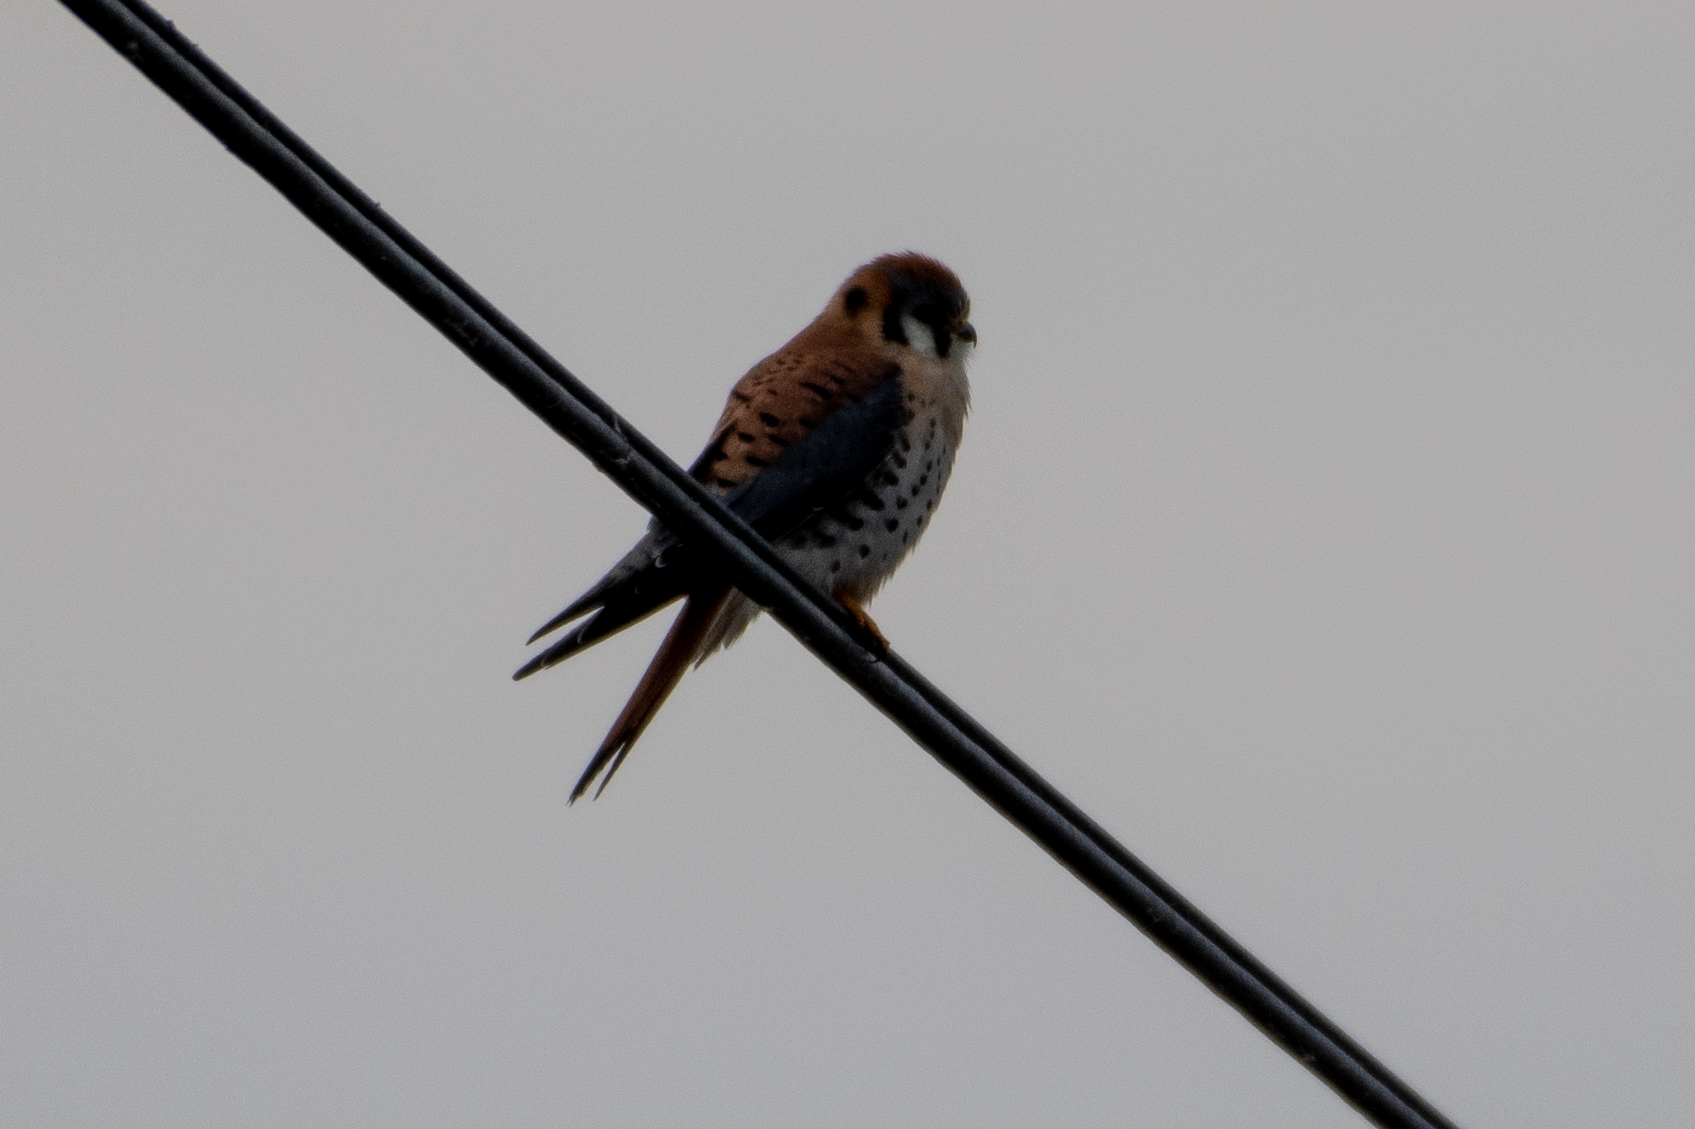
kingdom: Animalia
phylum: Chordata
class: Aves
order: Falconiformes
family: Falconidae
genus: Falco
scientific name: Falco sparverius
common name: American kestrel
